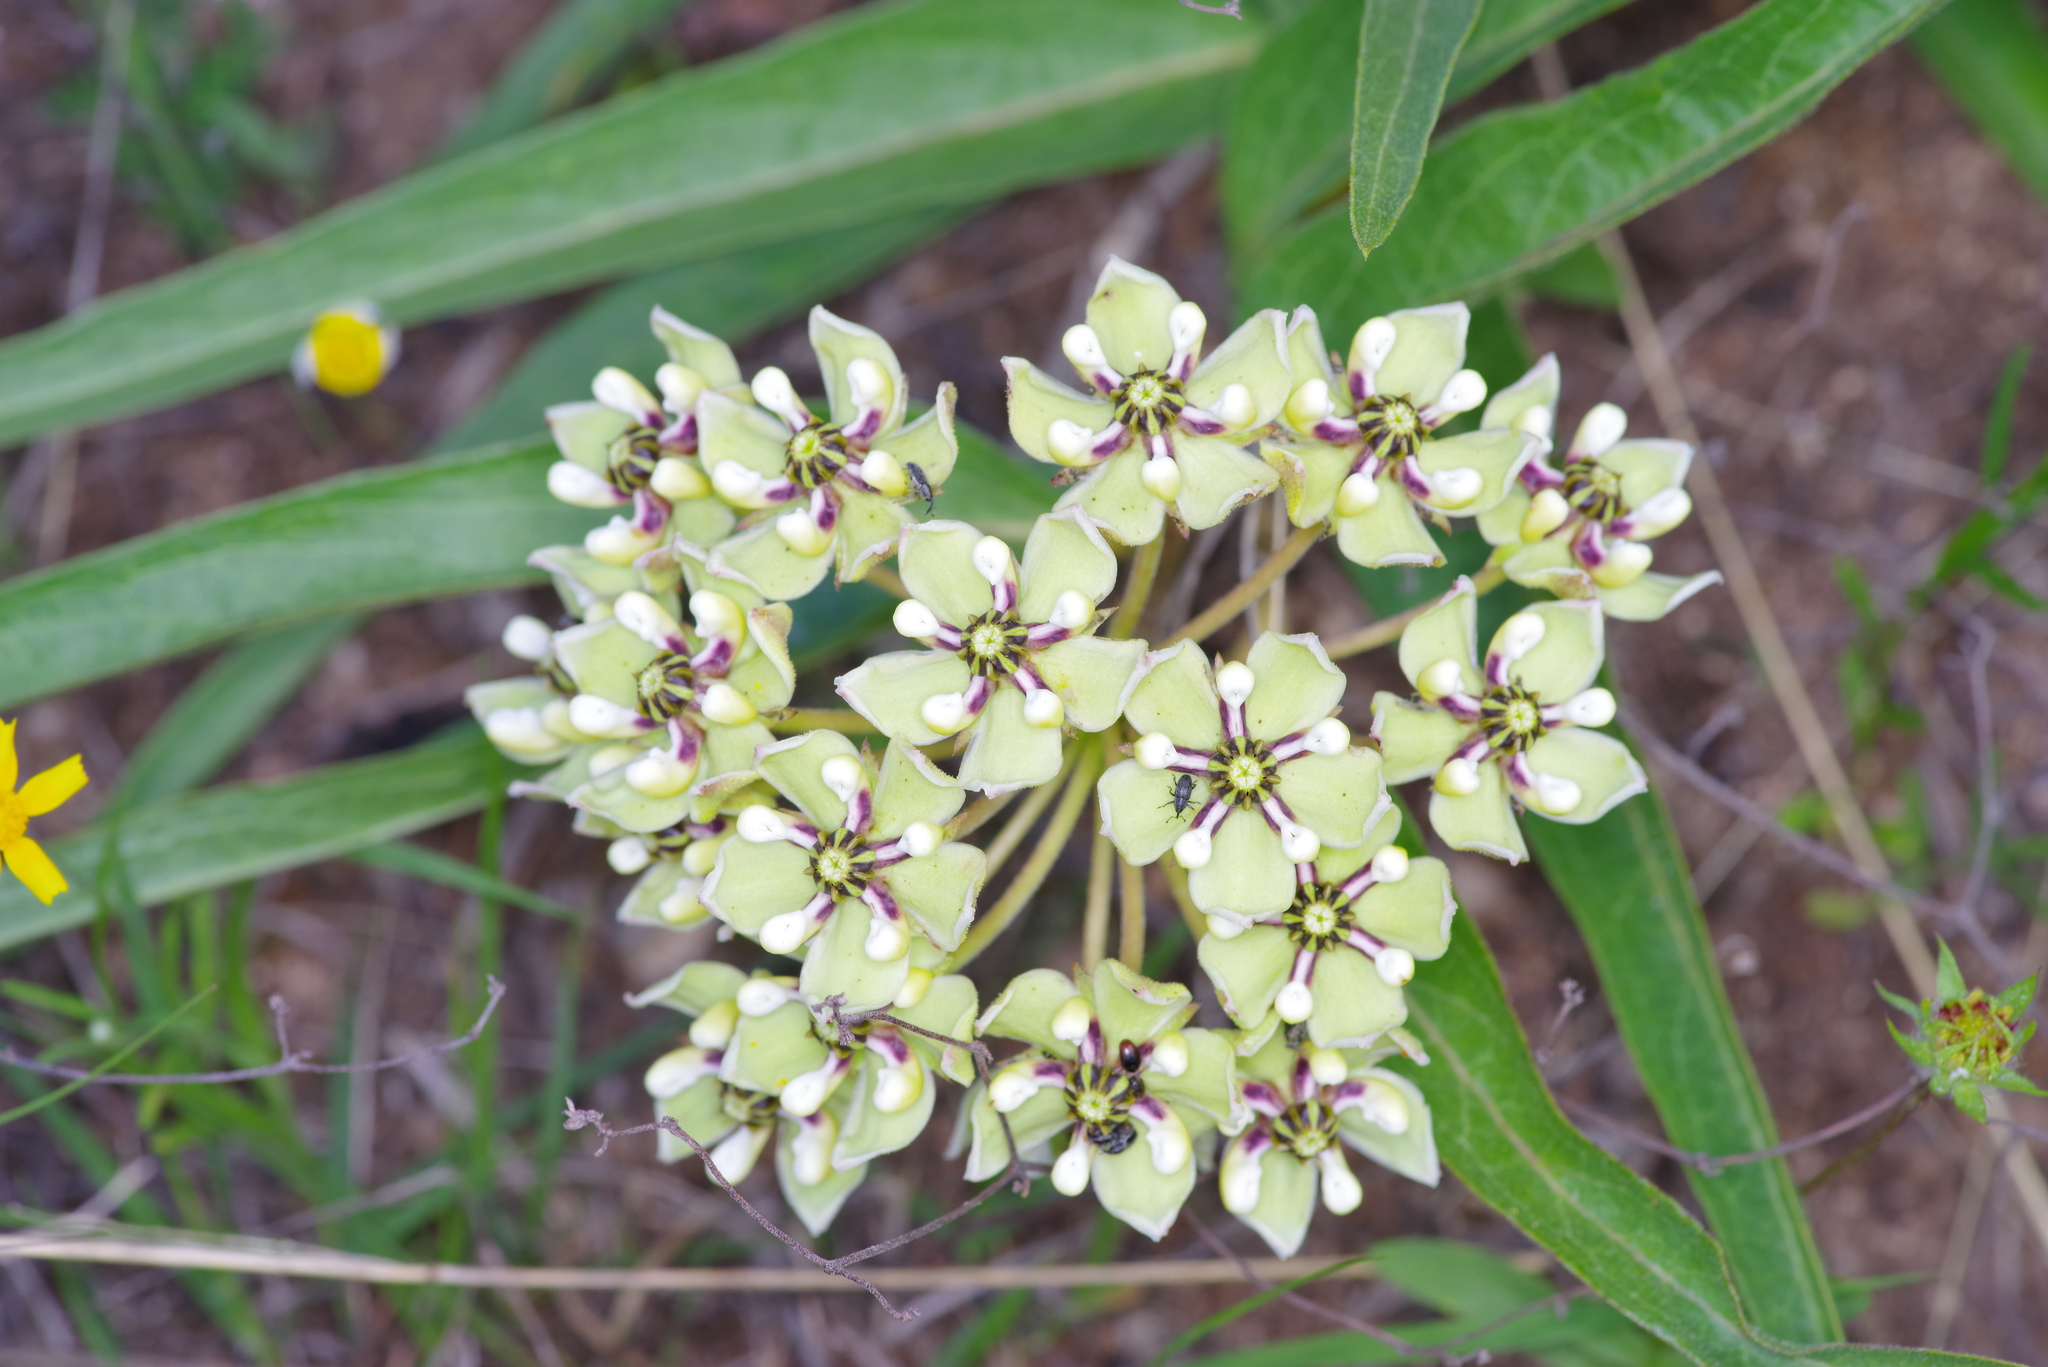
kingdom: Plantae
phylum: Tracheophyta
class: Magnoliopsida
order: Gentianales
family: Apocynaceae
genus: Asclepias
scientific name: Asclepias asperula
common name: Antelope horns
